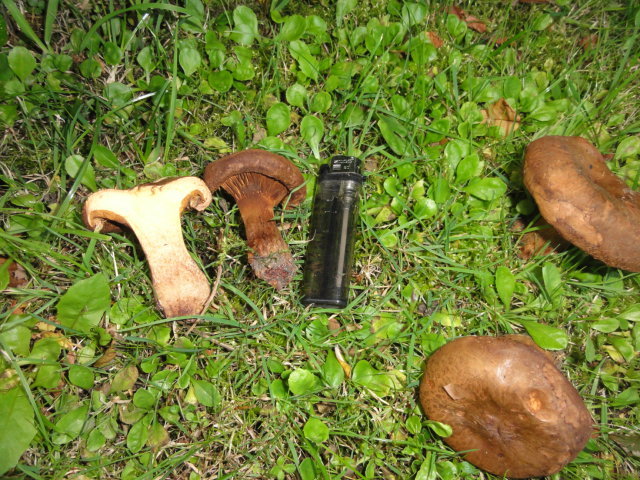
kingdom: Fungi
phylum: Basidiomycota
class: Agaricomycetes
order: Boletales
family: Paxillaceae
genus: Paxillus
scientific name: Paxillus involutus
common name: Brown roll rim
